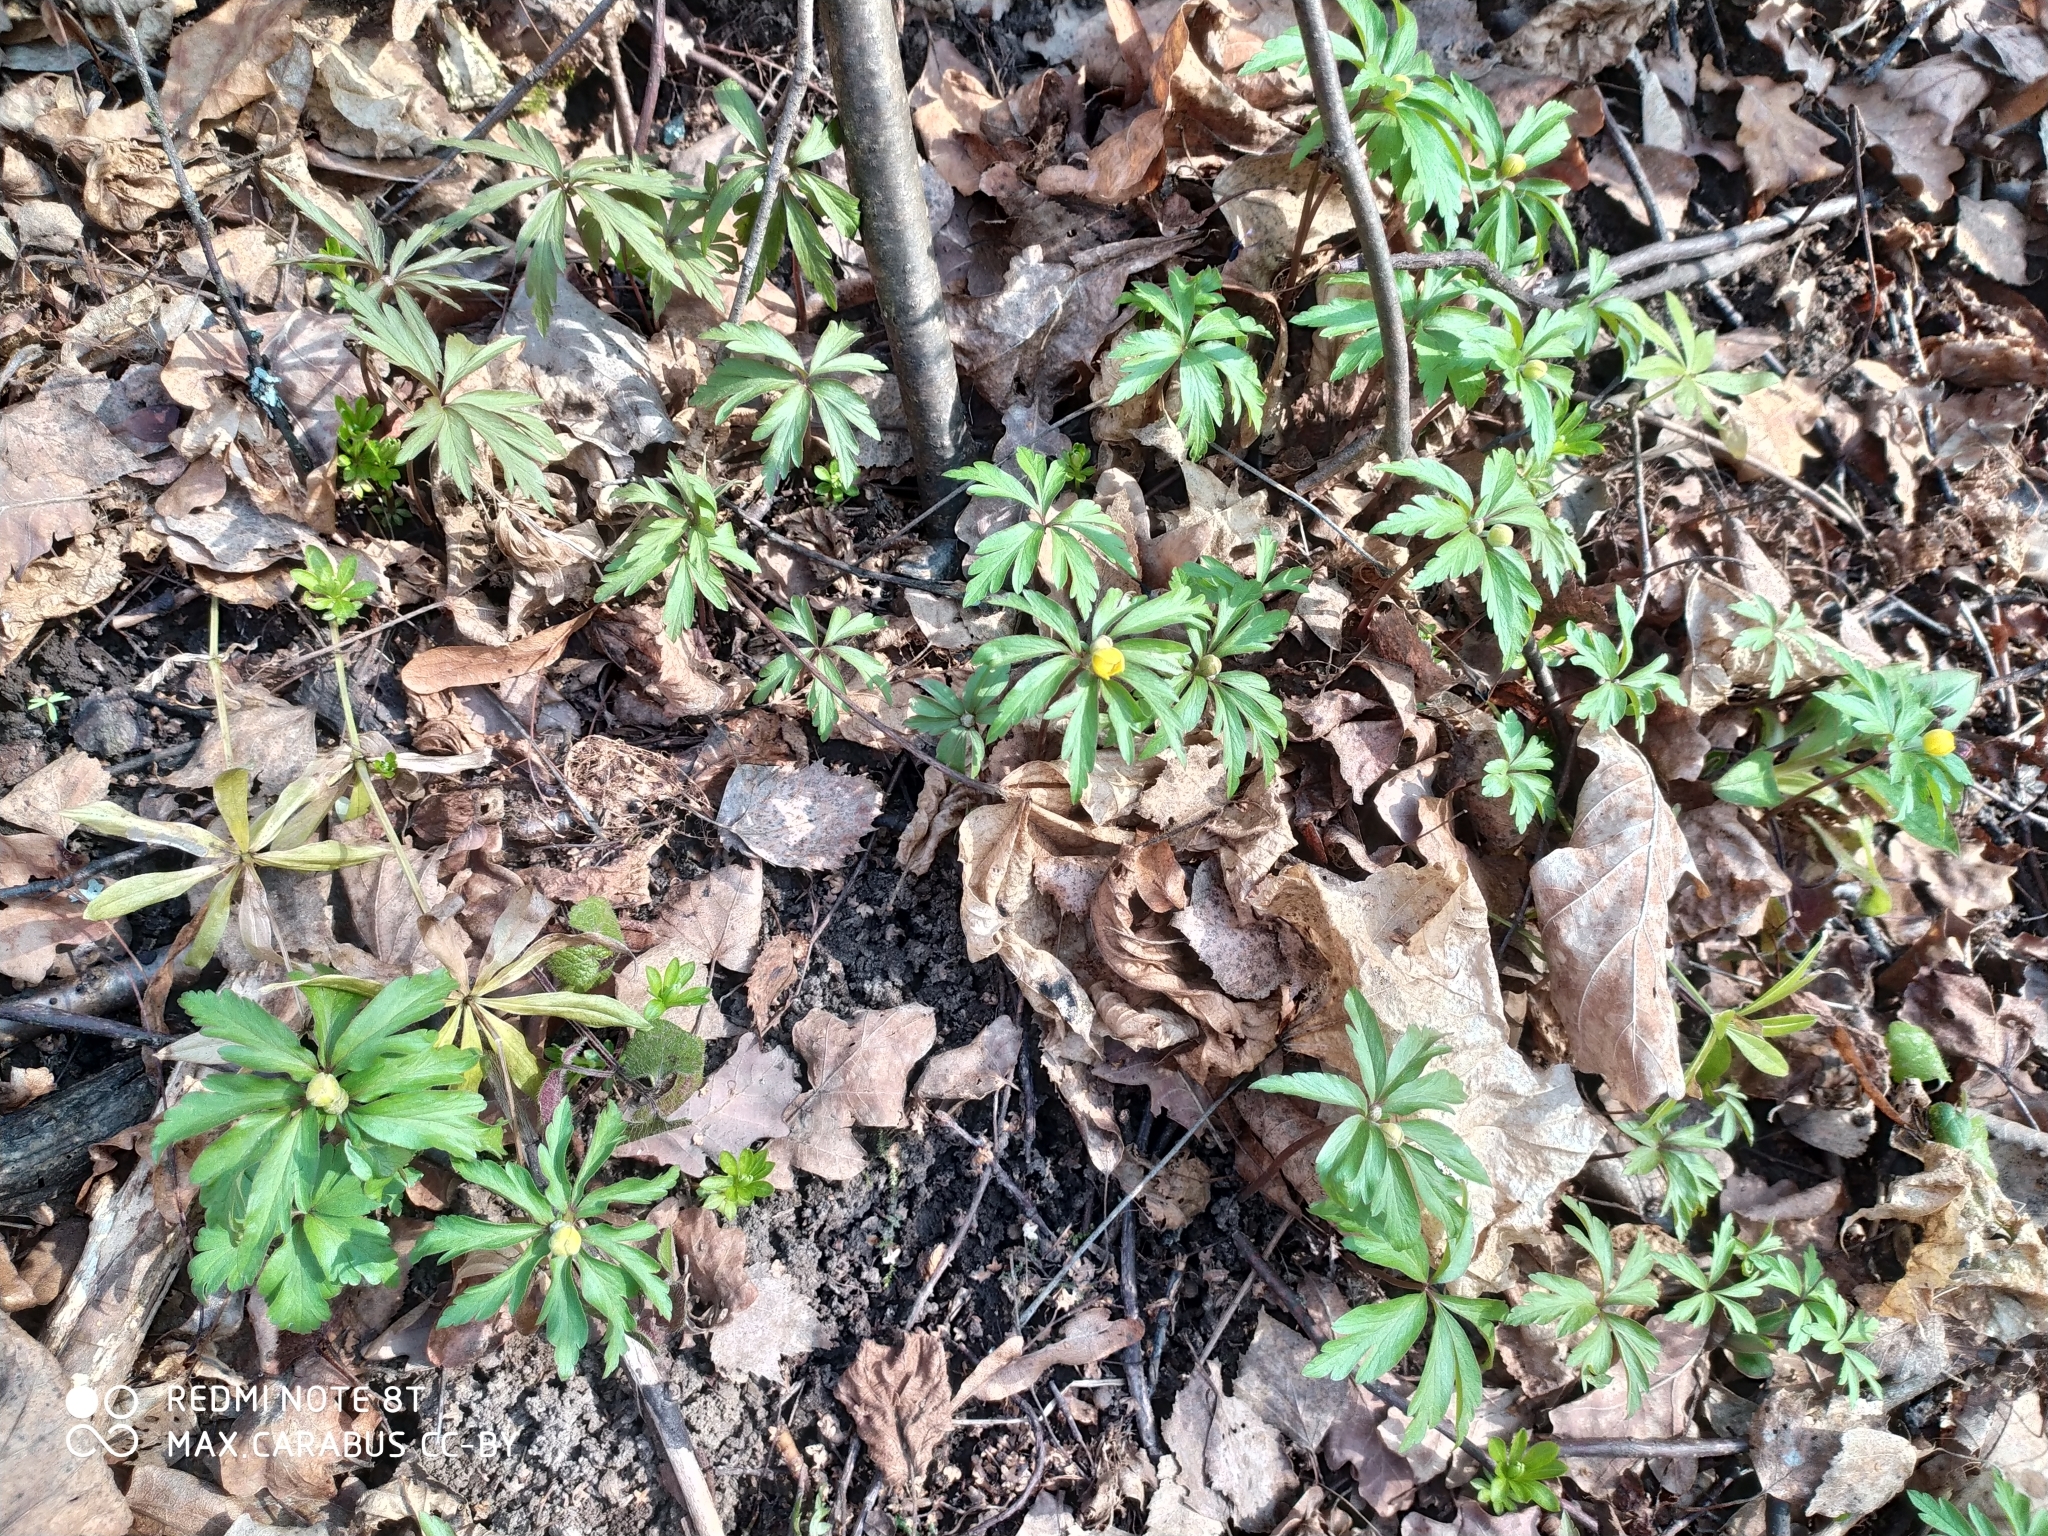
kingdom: Plantae
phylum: Tracheophyta
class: Magnoliopsida
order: Ranunculales
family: Ranunculaceae
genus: Anemone
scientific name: Anemone ranunculoides
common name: Yellow anemone
